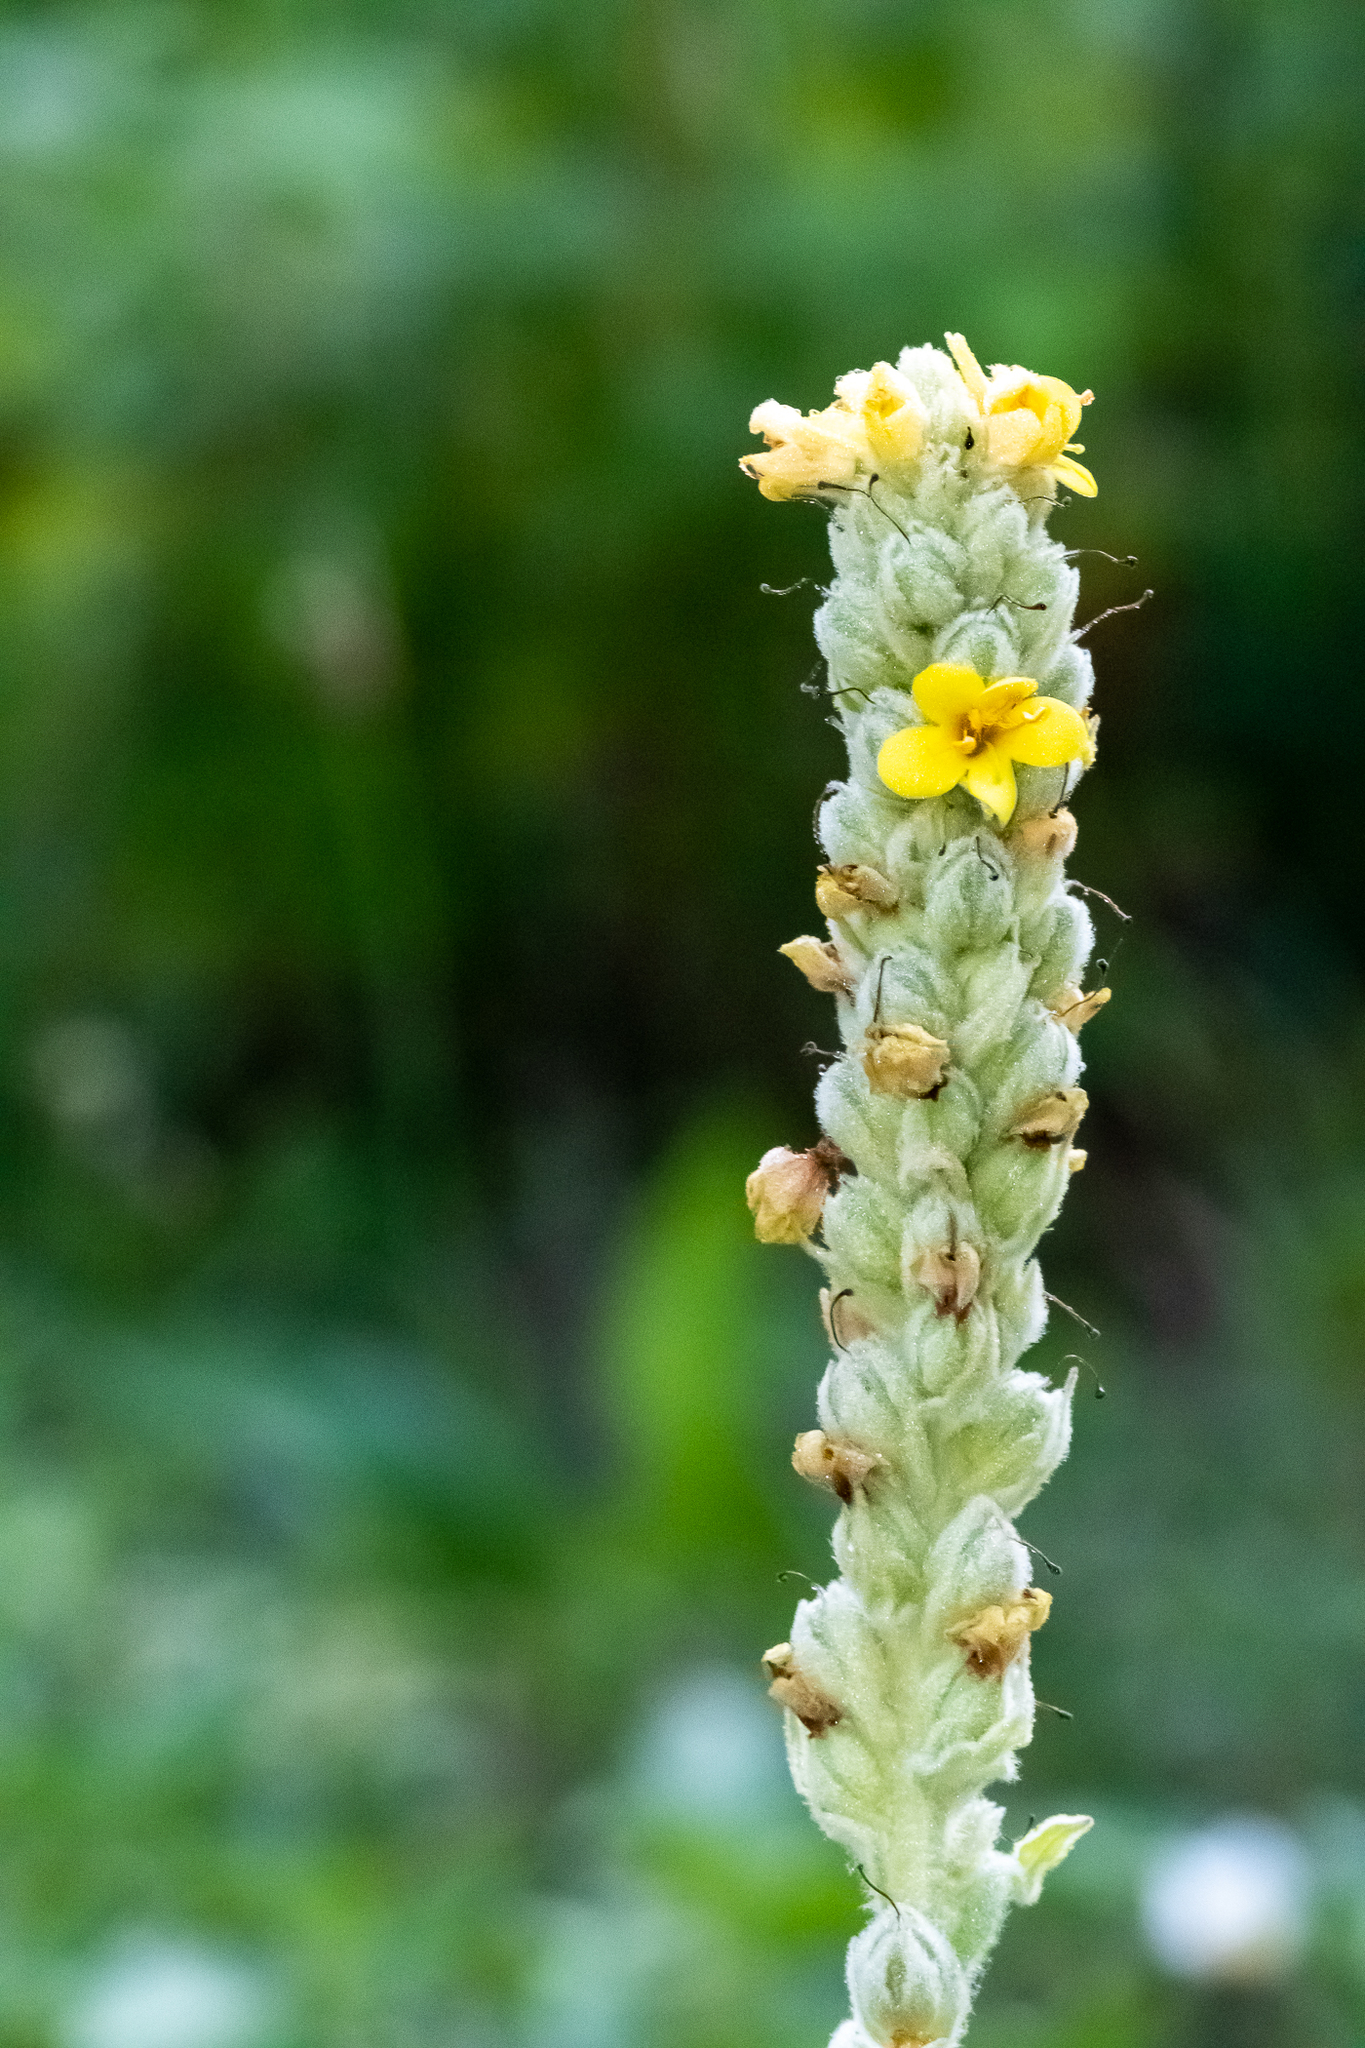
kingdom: Plantae
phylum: Tracheophyta
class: Magnoliopsida
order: Lamiales
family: Scrophulariaceae
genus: Verbascum
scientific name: Verbascum thapsus
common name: Common mullein
